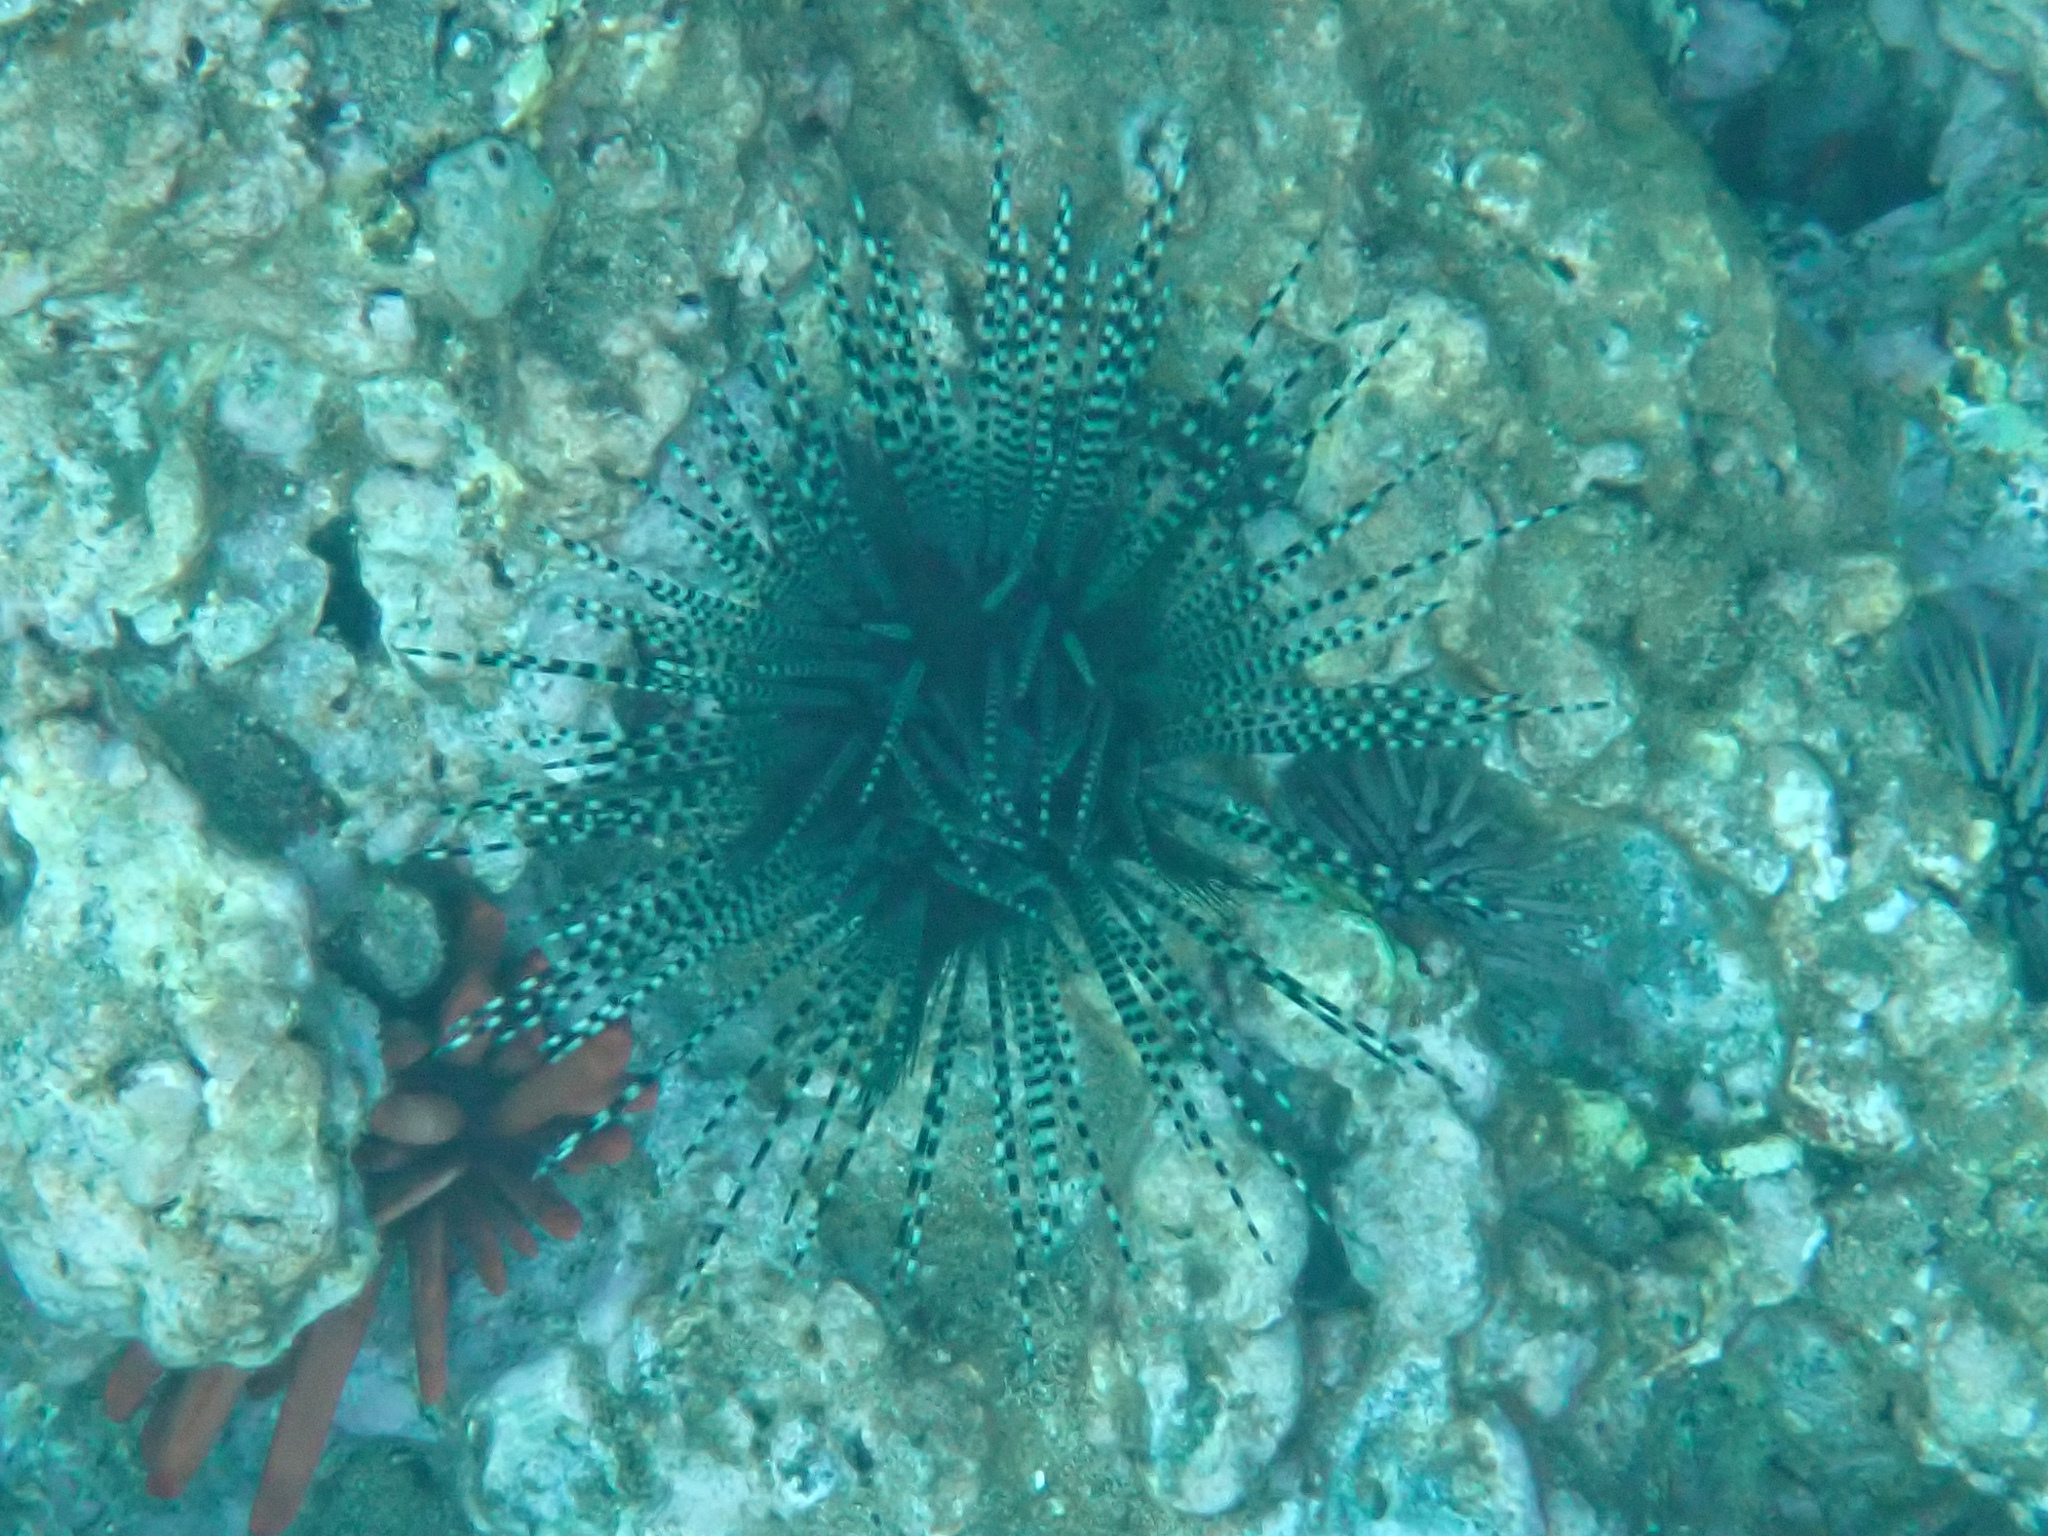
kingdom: Animalia
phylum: Echinodermata
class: Echinoidea
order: Diadematoida
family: Diadematidae
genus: Echinothrix
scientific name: Echinothrix calamaris
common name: Banded sea urchin
